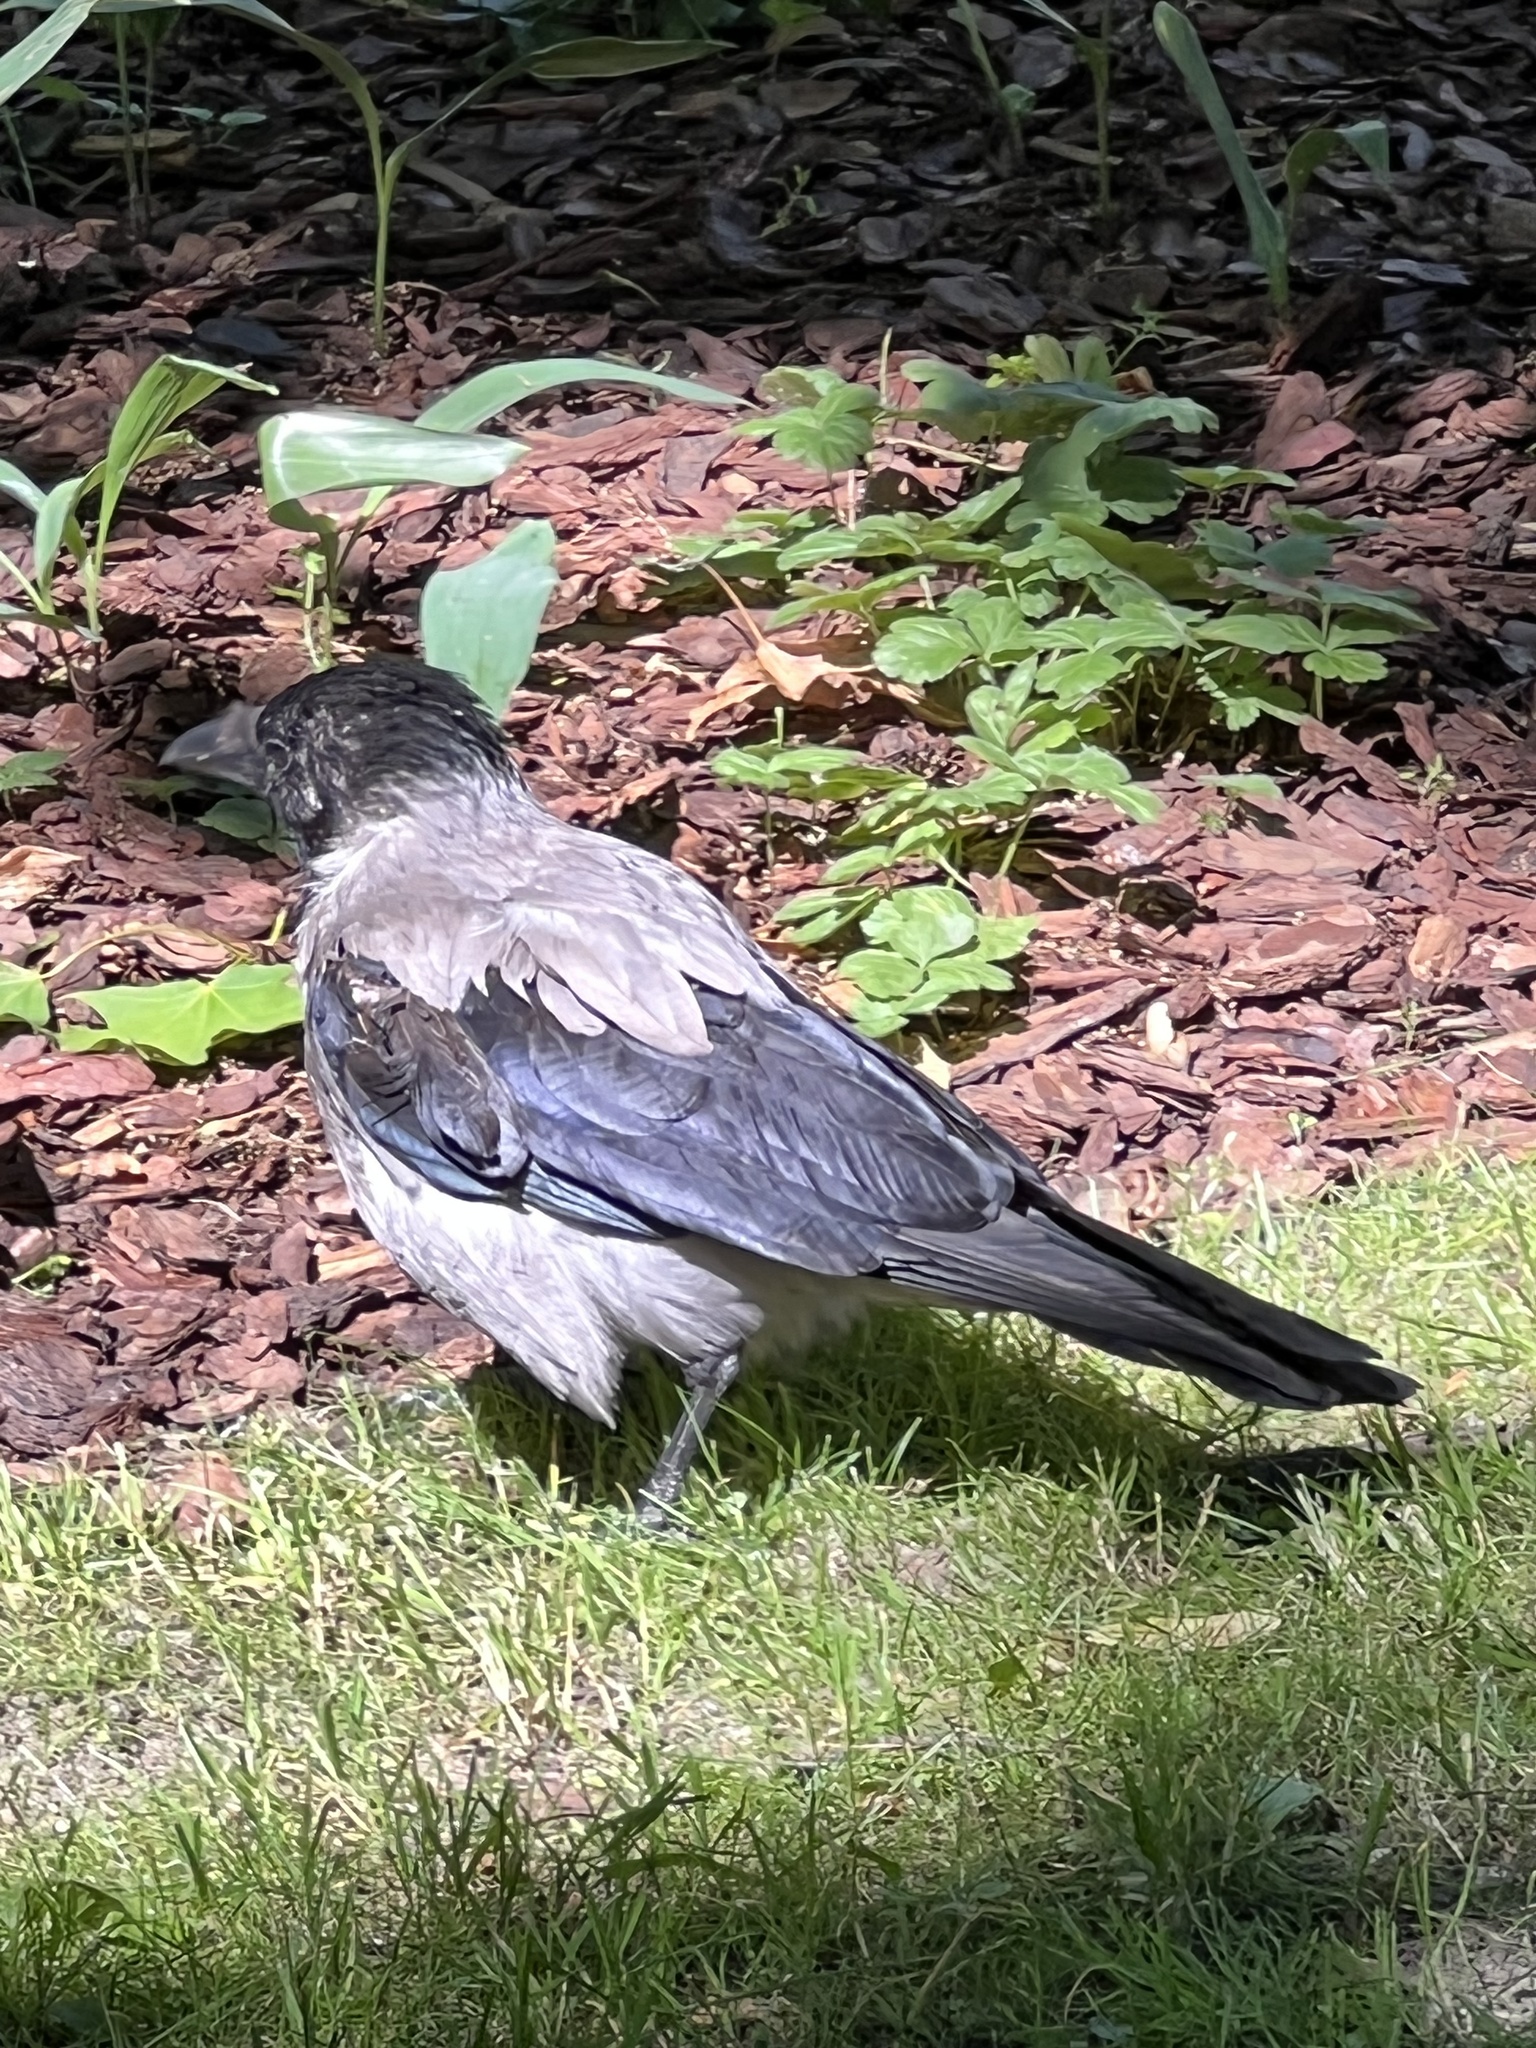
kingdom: Animalia
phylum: Chordata
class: Aves
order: Passeriformes
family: Corvidae
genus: Corvus
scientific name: Corvus cornix
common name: Hooded crow
